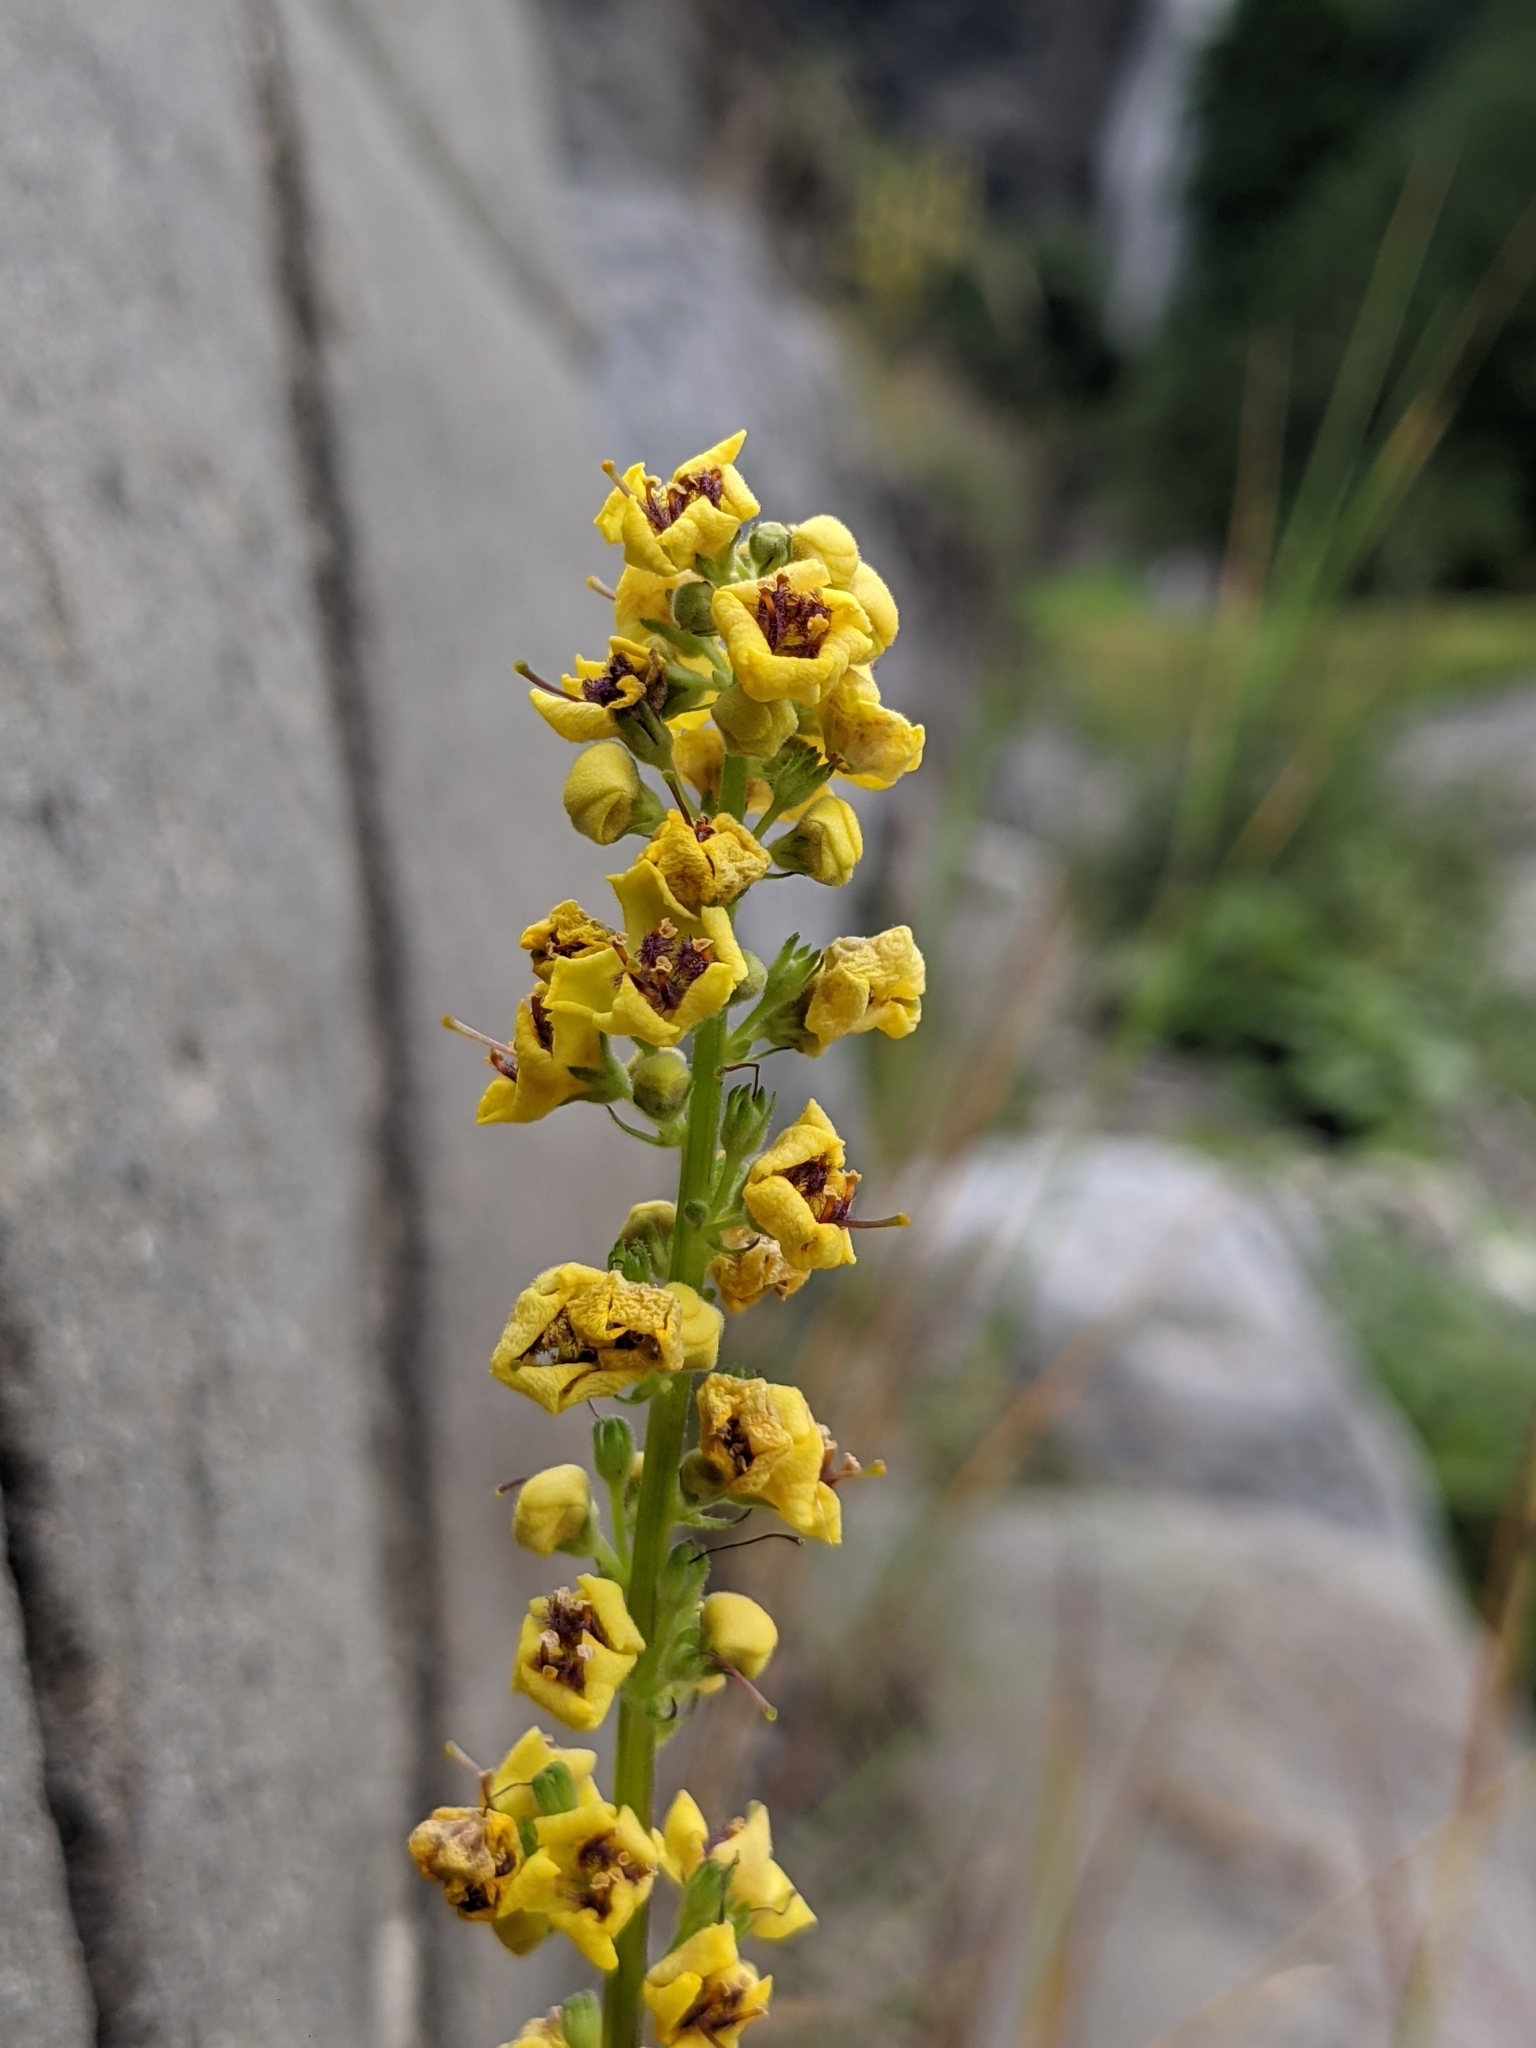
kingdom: Plantae
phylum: Tracheophyta
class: Magnoliopsida
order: Lamiales
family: Scrophulariaceae
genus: Verbascum
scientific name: Verbascum nigrum
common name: Dark mullein
